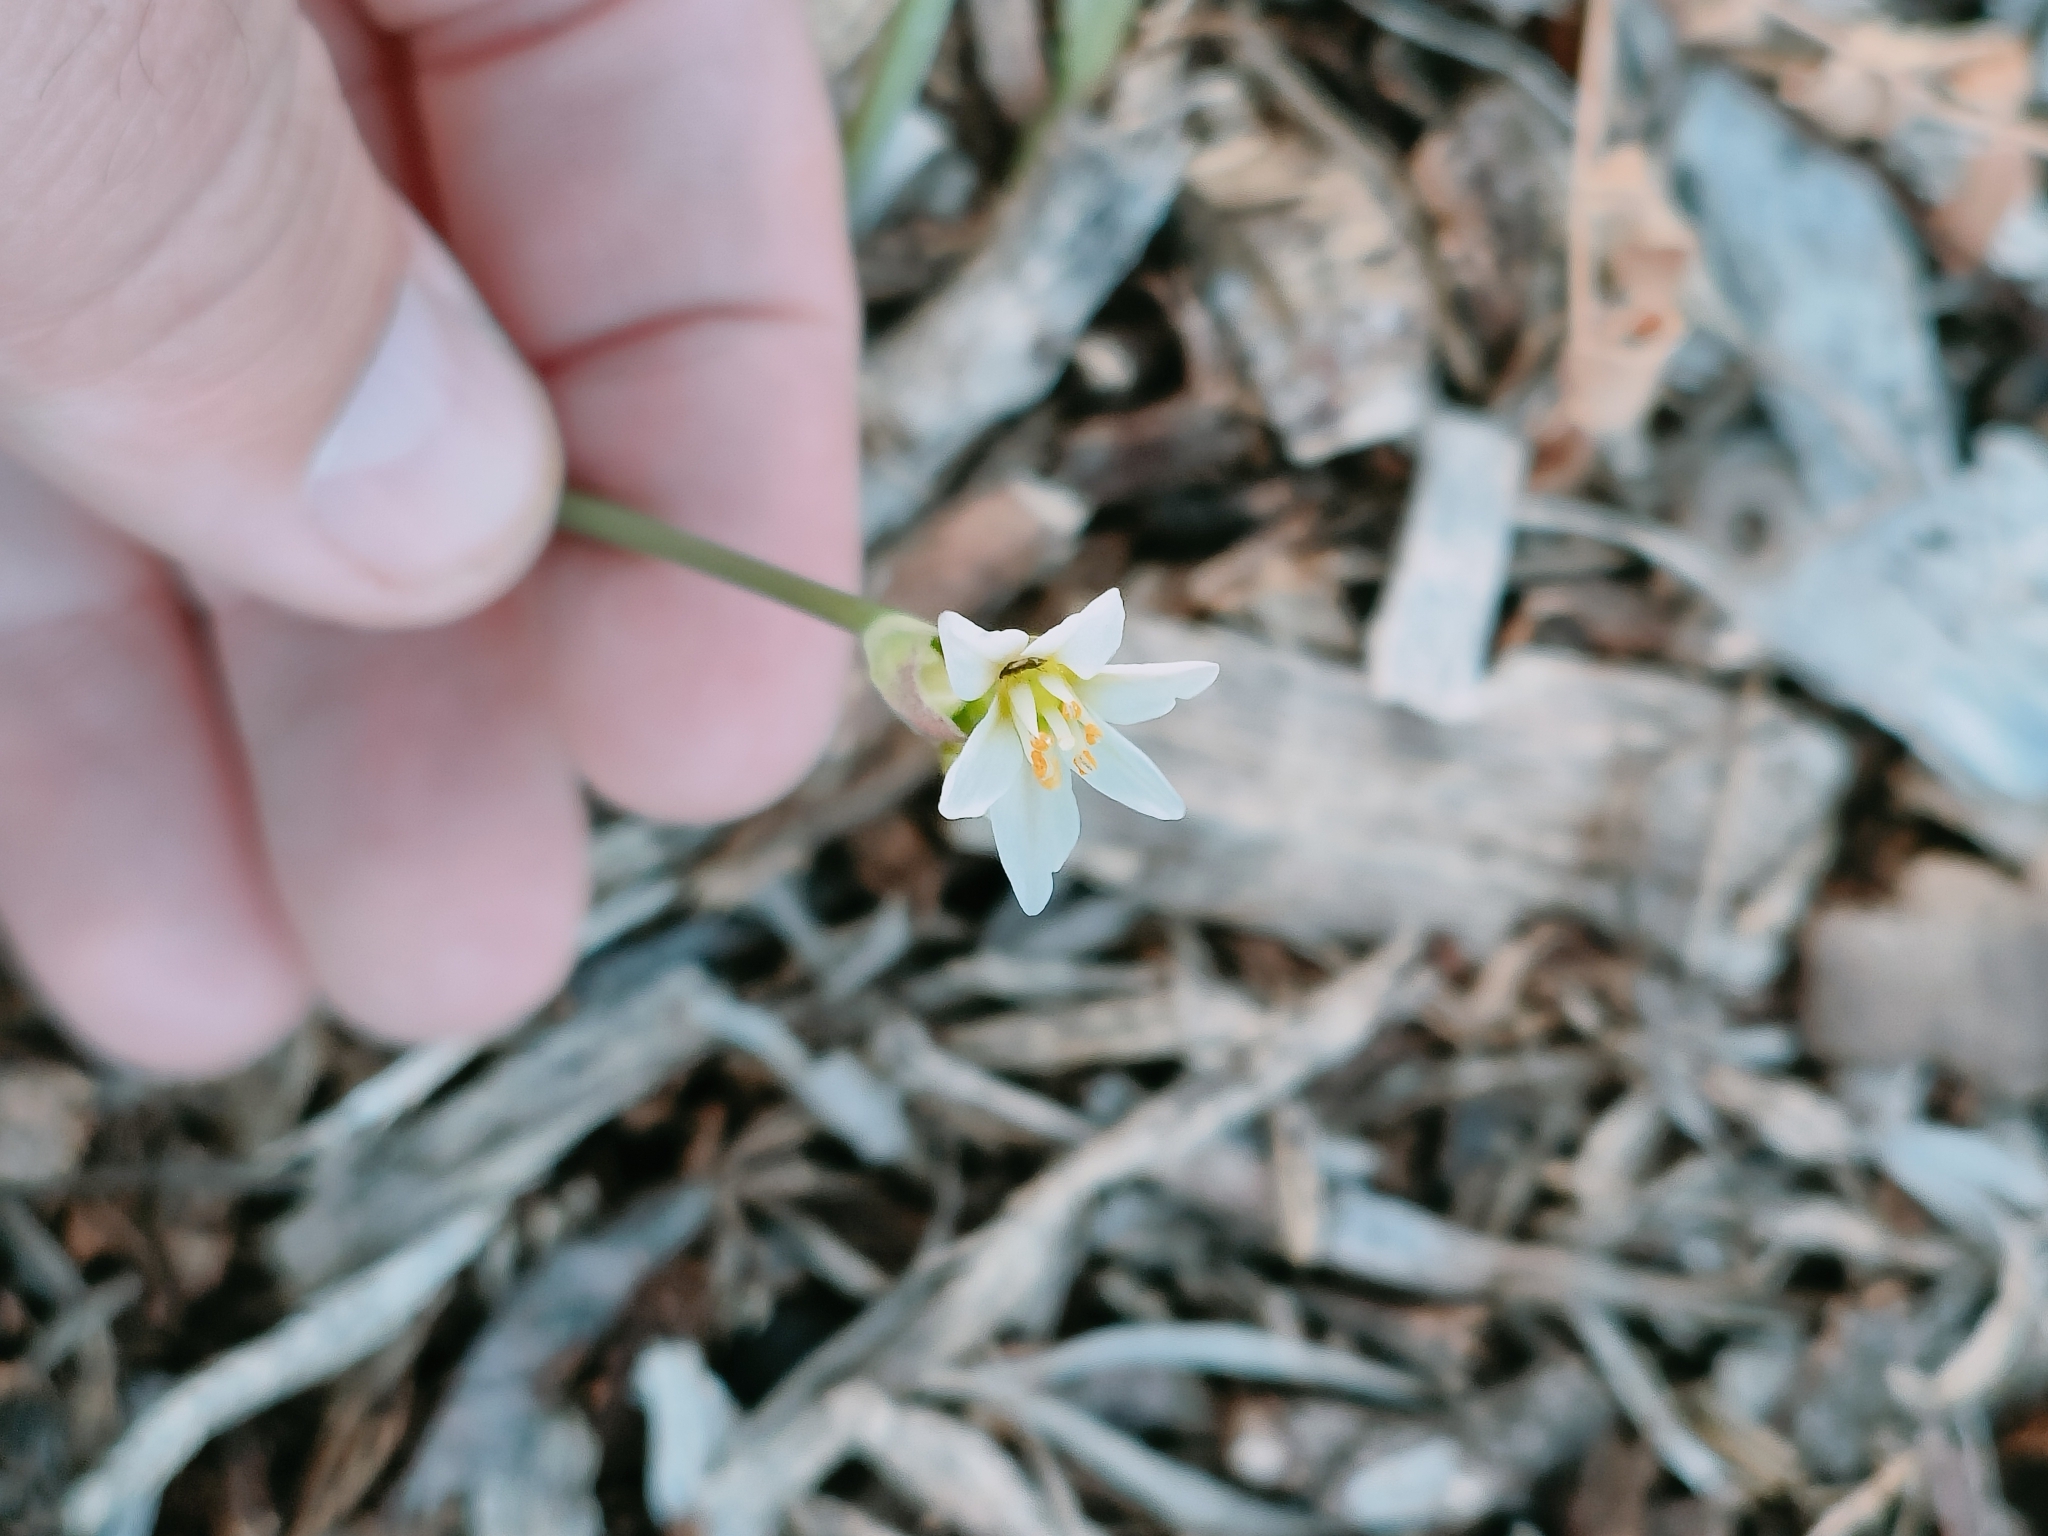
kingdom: Plantae
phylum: Tracheophyta
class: Liliopsida
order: Asparagales
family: Amaryllidaceae
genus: Nothoscordum
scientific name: Nothoscordum gracile
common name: Slender false garlic
